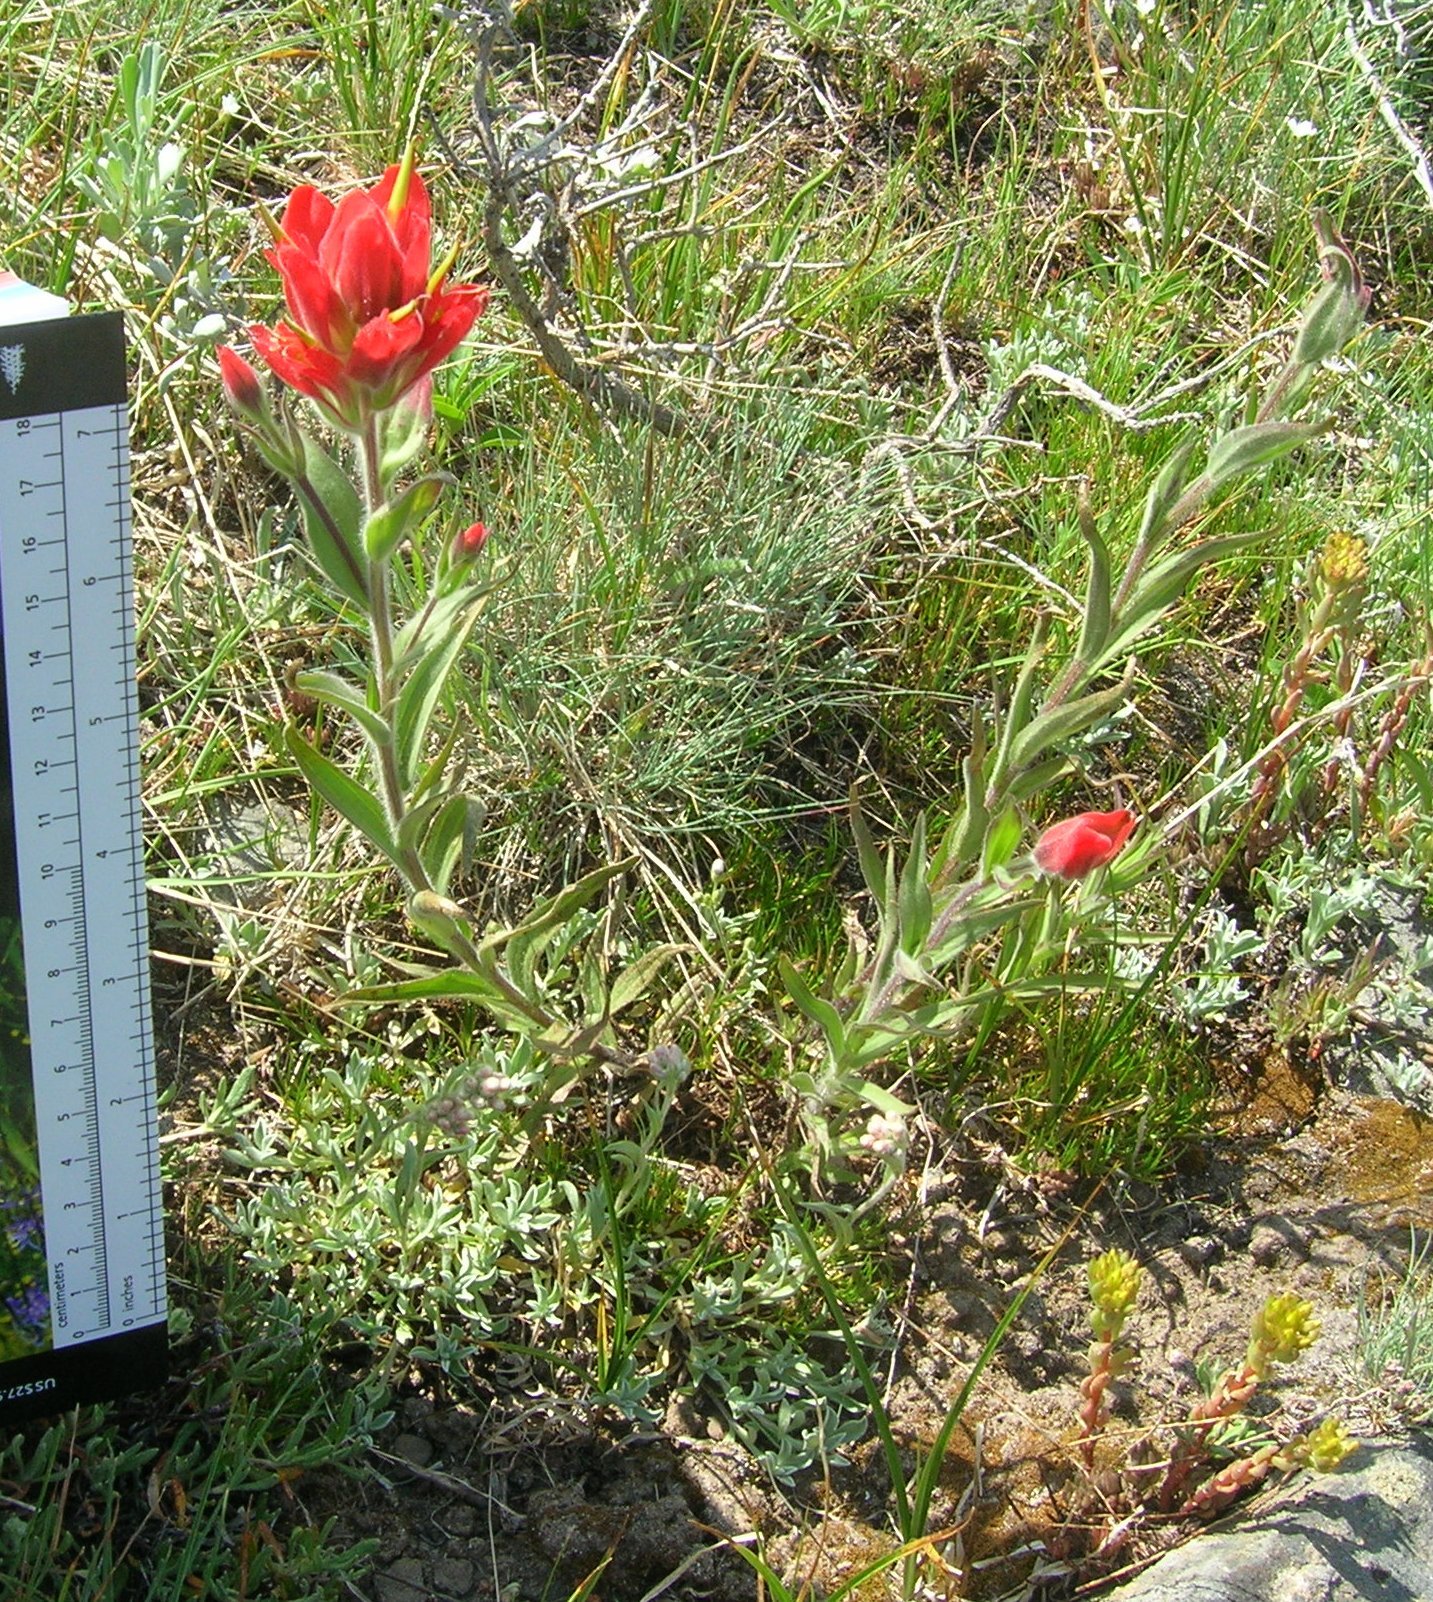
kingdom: Plantae
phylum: Tracheophyta
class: Magnoliopsida
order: Lamiales
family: Orobanchaceae
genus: Castilleja
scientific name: Castilleja miniata
